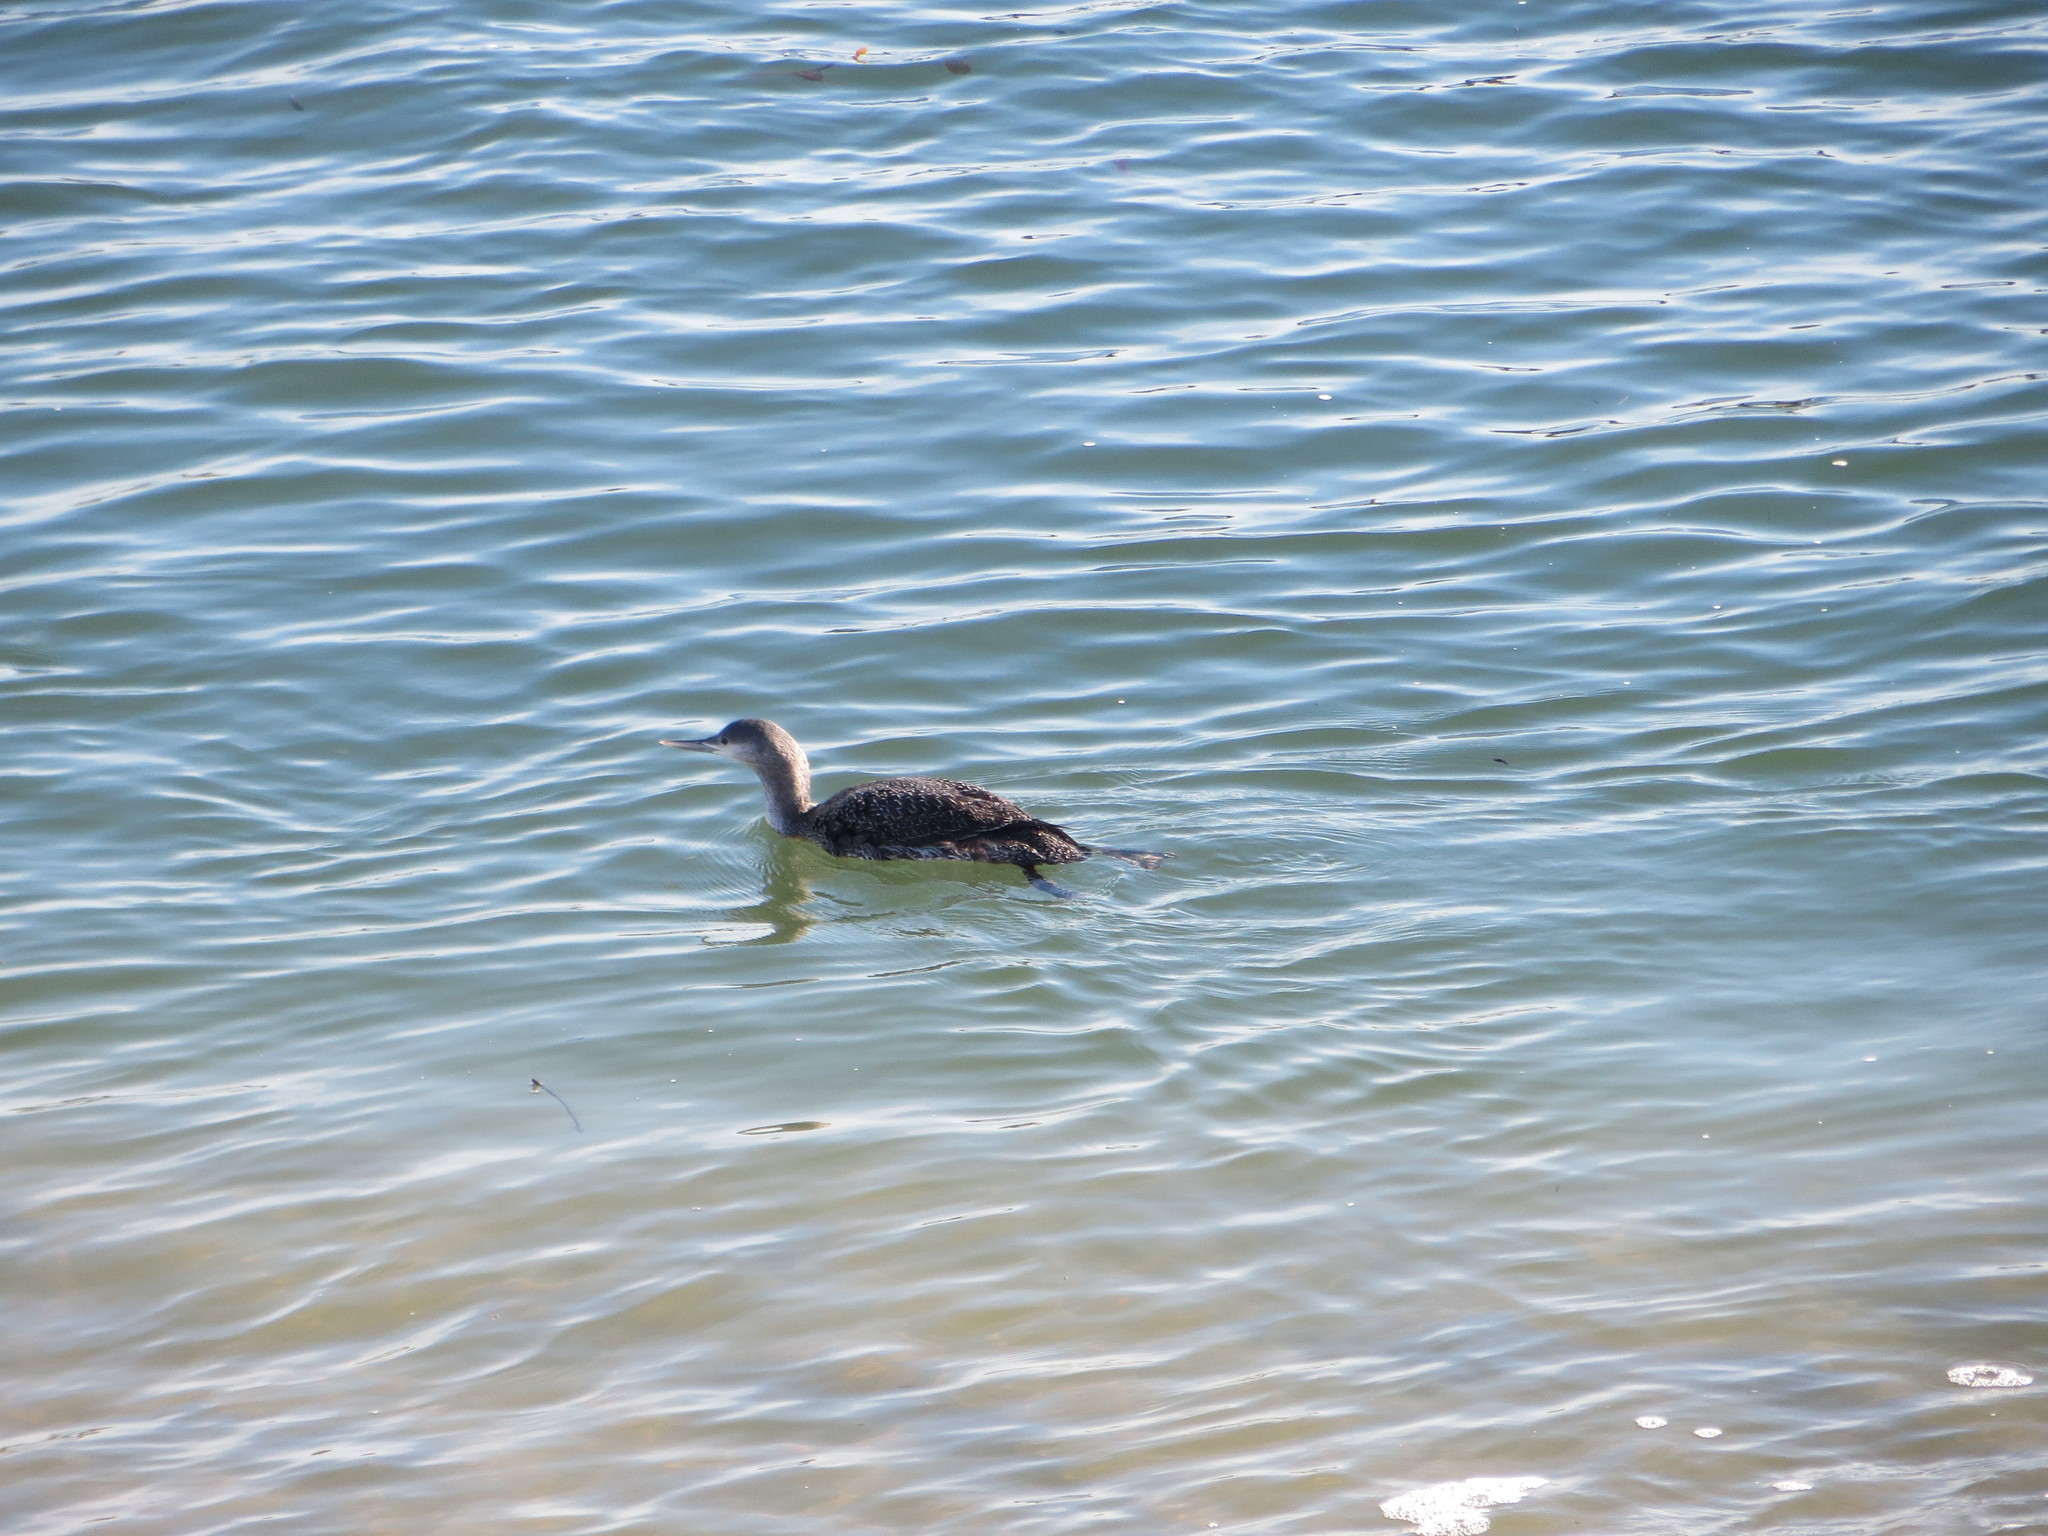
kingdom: Animalia
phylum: Chordata
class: Aves
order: Gaviiformes
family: Gaviidae
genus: Gavia
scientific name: Gavia stellata
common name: Red-throated loon
